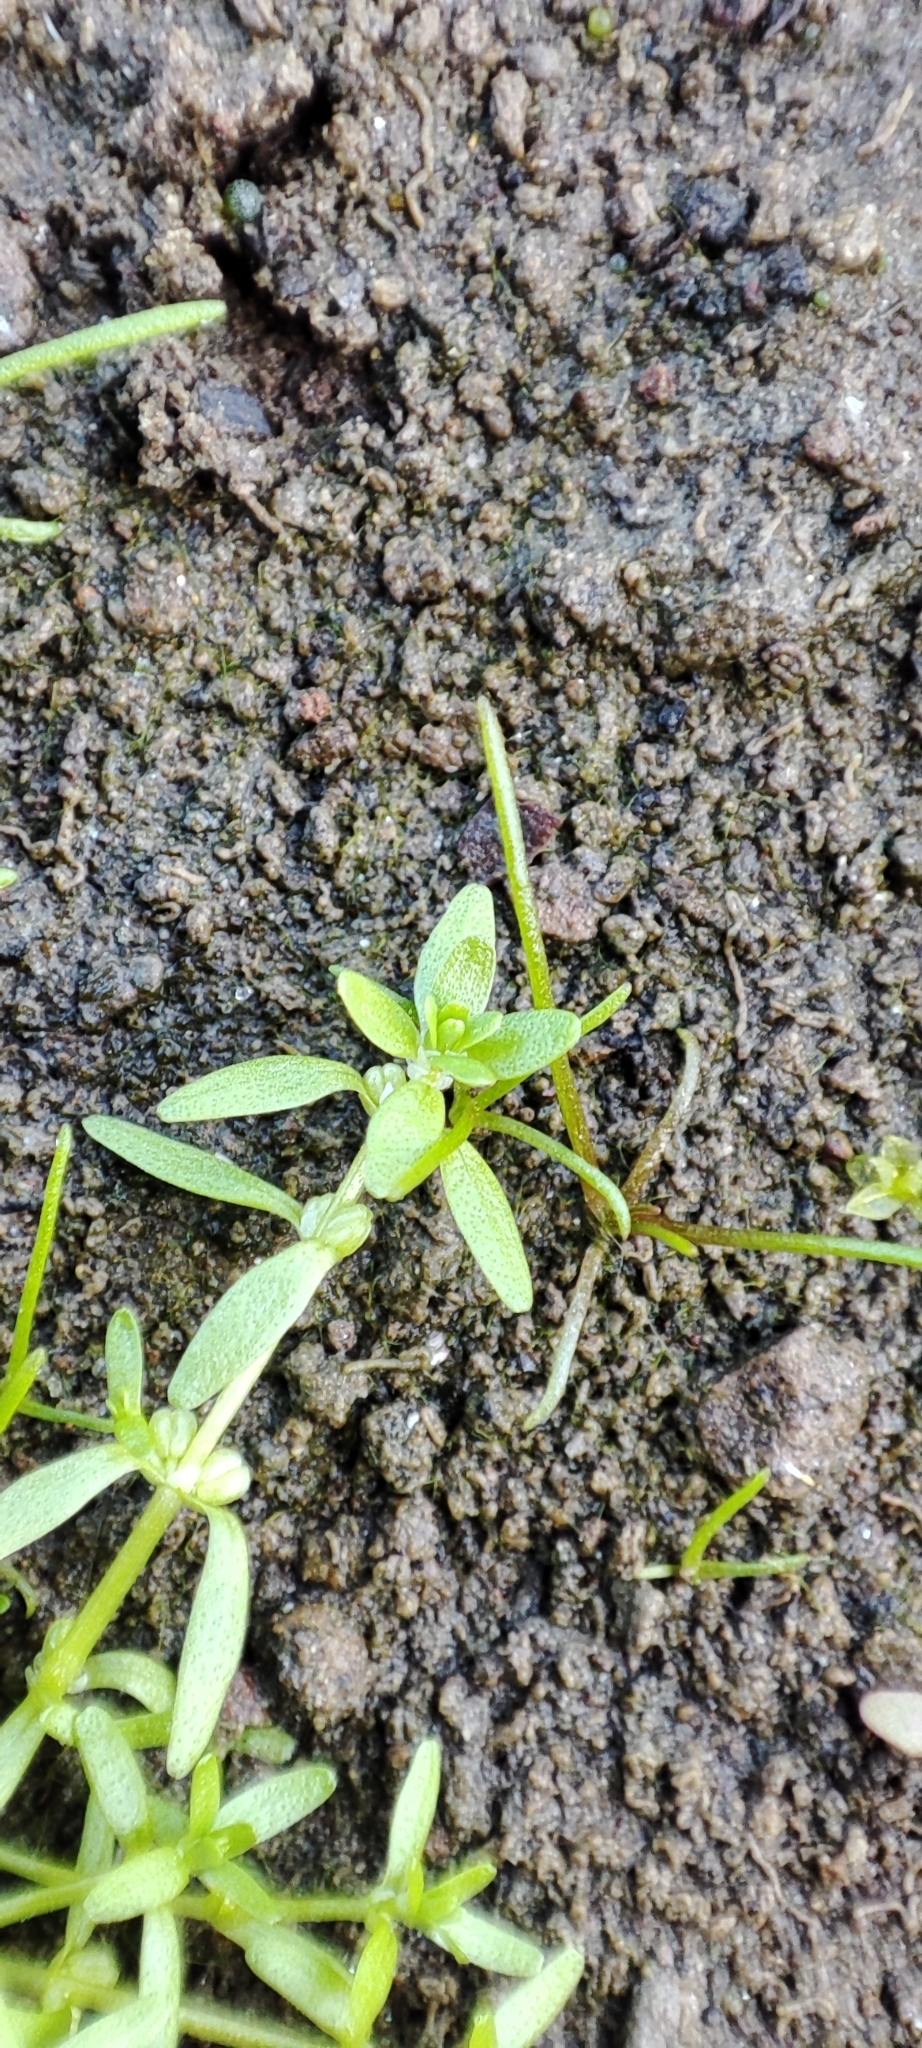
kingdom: Plantae
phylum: Tracheophyta
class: Magnoliopsida
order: Lamiales
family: Plantaginaceae
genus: Callitriche
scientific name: Callitriche palustris
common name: Spring water-starwort
